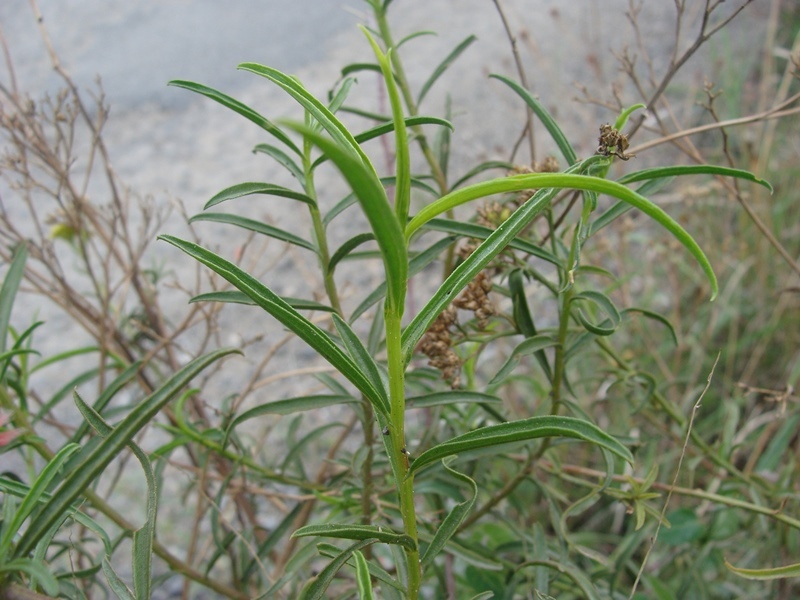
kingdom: Plantae
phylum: Tracheophyta
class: Magnoliopsida
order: Asterales
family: Asteraceae
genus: Gymnosperma
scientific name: Gymnosperma glutinosum
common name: Gumhead
